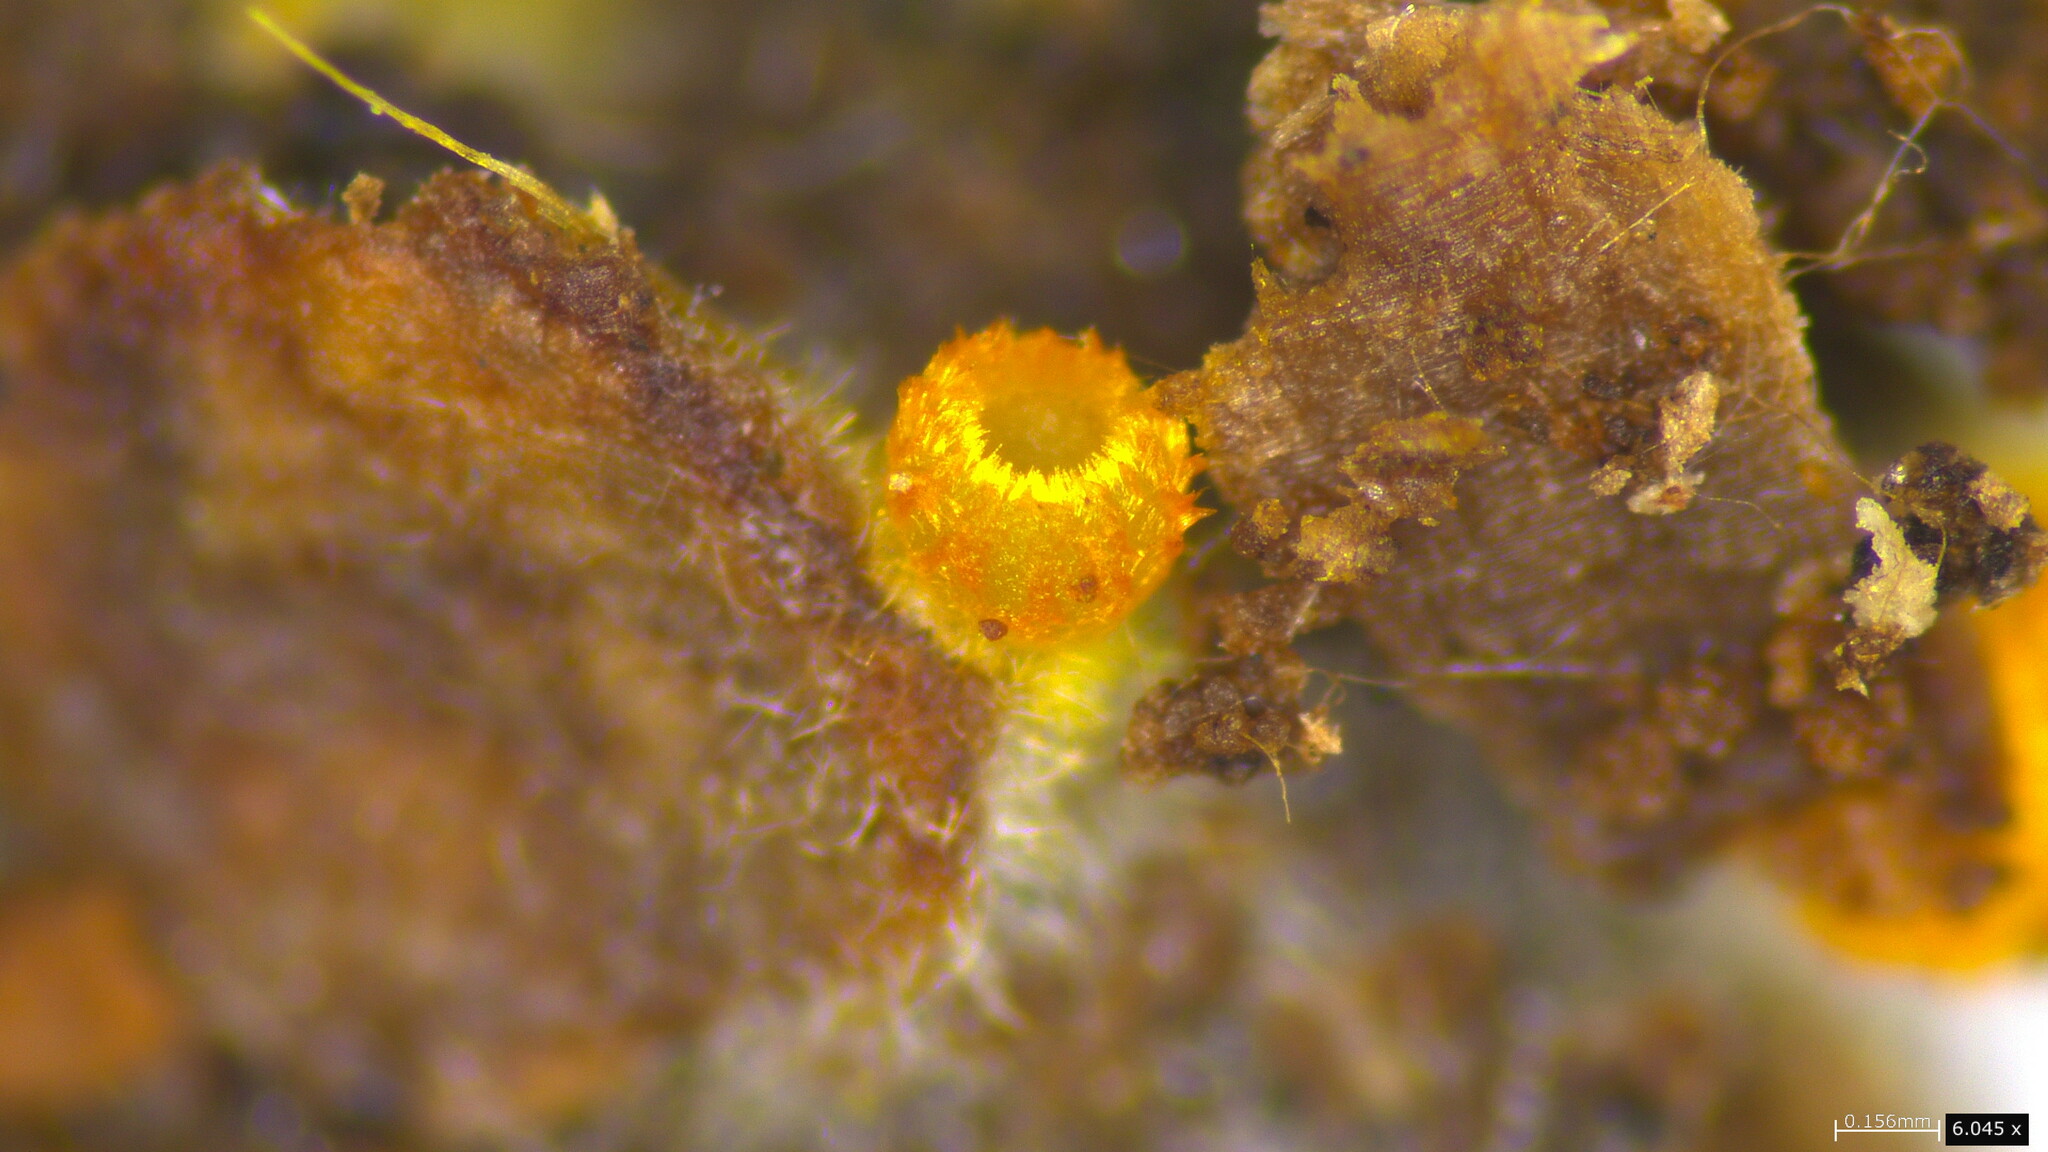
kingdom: Fungi
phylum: Ascomycota
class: Leotiomycetes
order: Helotiales
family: Arachnopezizaceae
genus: Arachnopeziza
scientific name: Arachnopeziza aurelia
